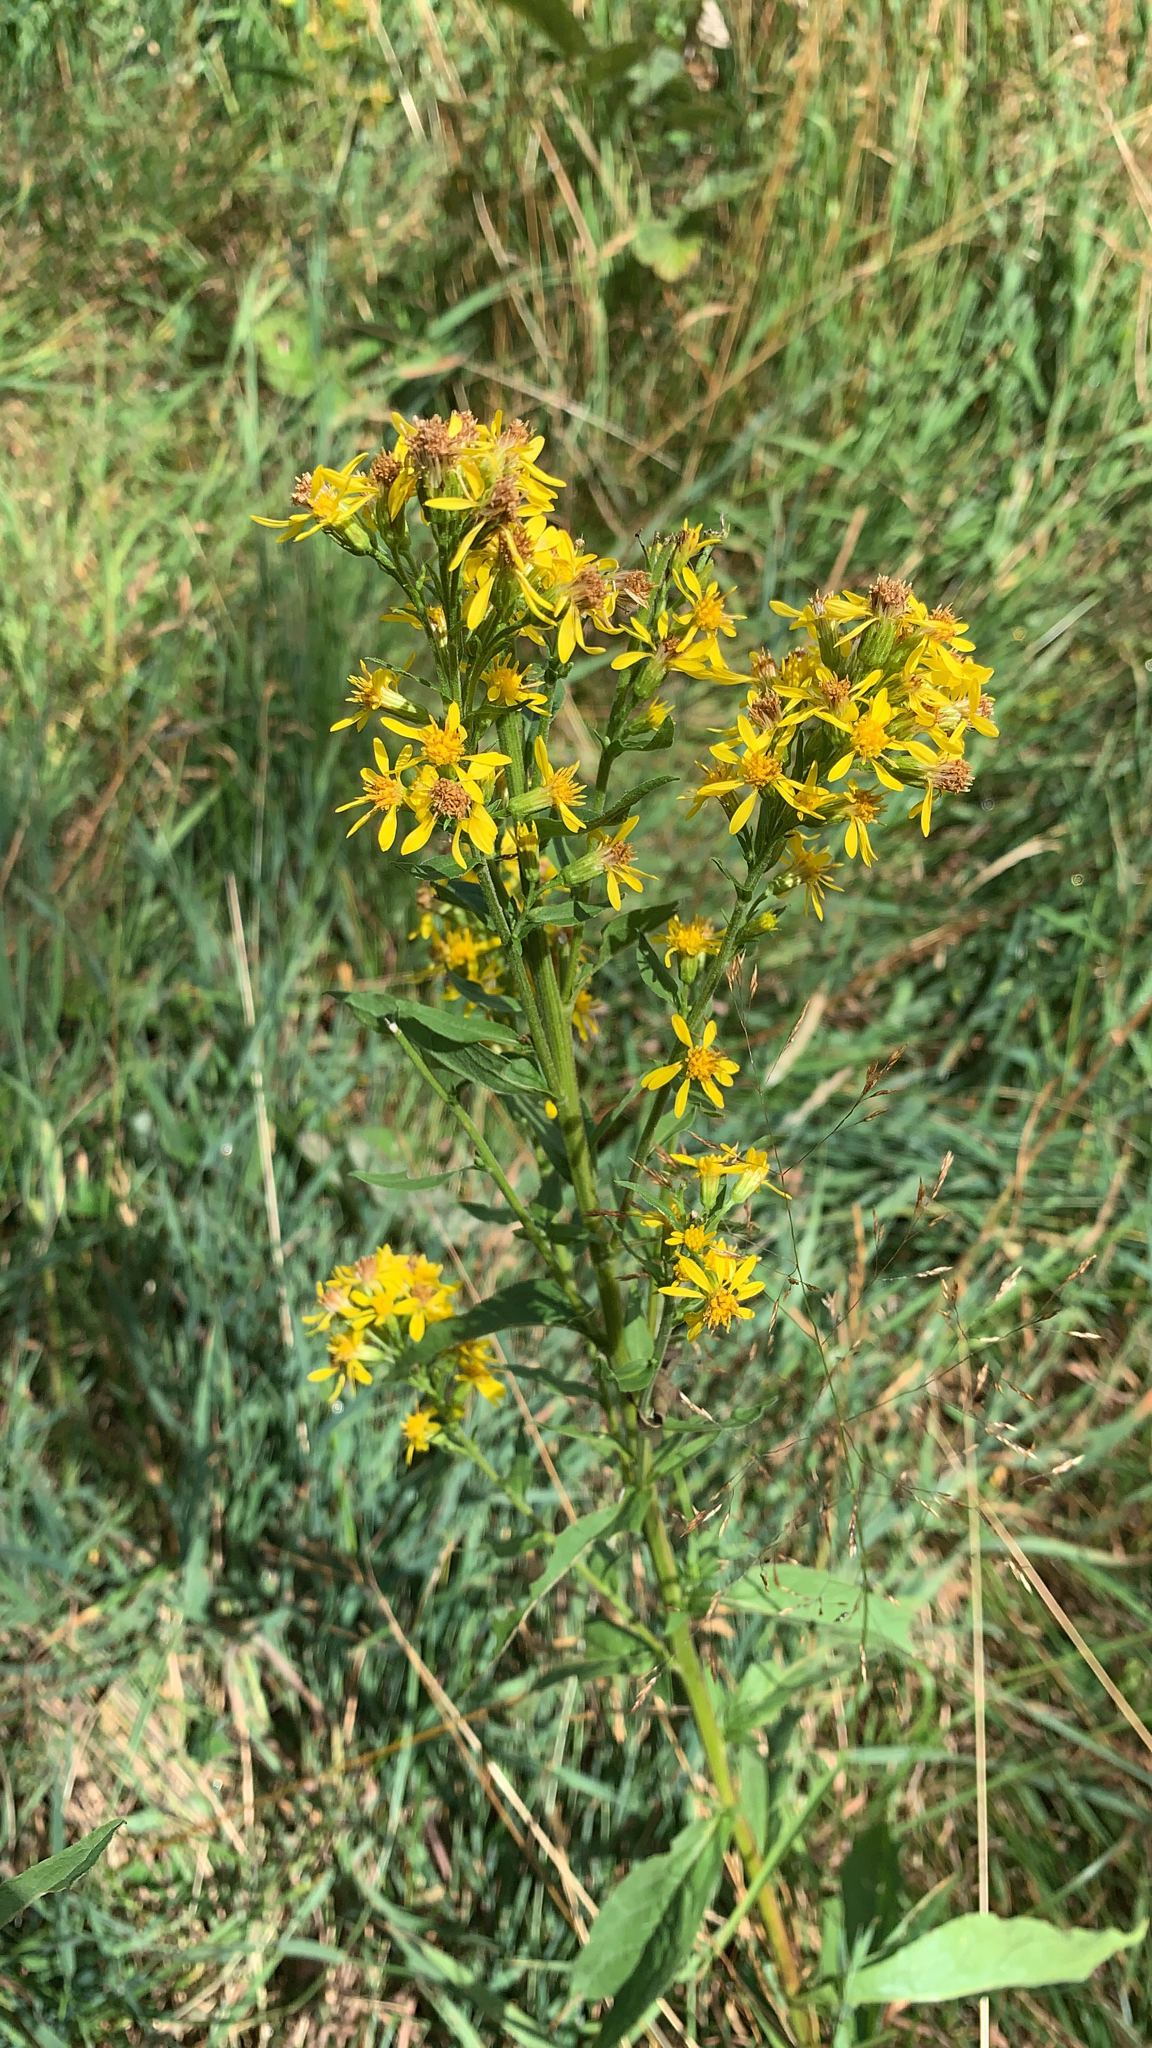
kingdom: Plantae
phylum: Tracheophyta
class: Magnoliopsida
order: Asterales
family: Asteraceae
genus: Solidago
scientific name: Solidago virgaurea
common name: Goldenrod
